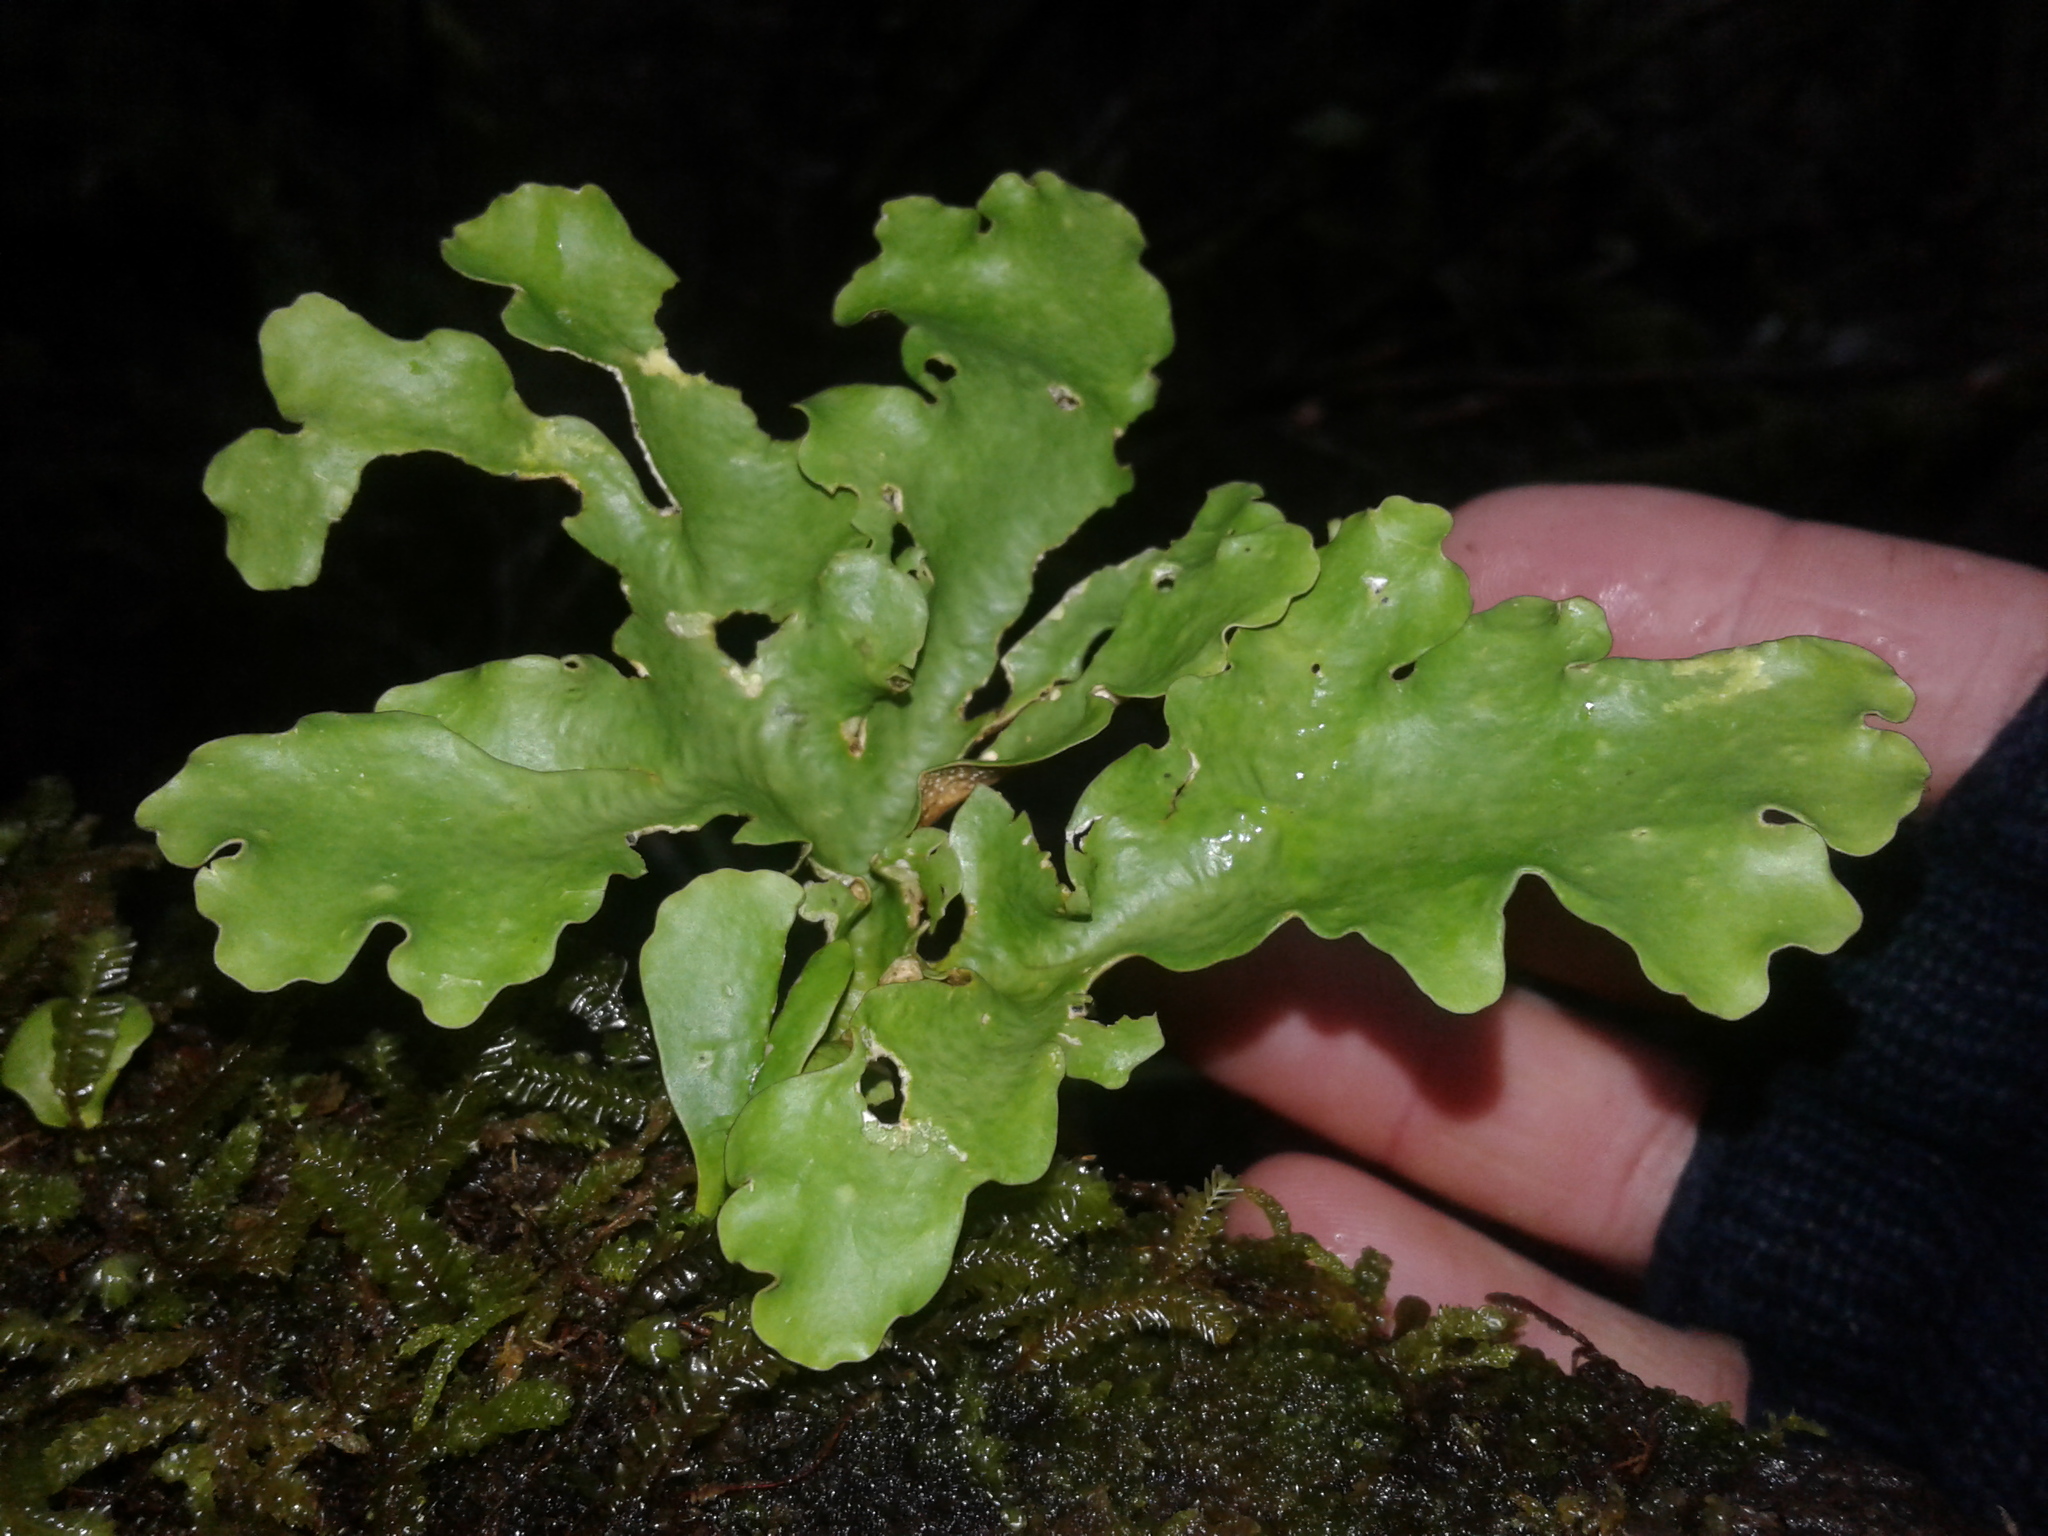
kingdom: Fungi
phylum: Ascomycota
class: Lecanoromycetes
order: Peltigerales
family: Lobariaceae
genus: Sticta
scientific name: Sticta latifrons
